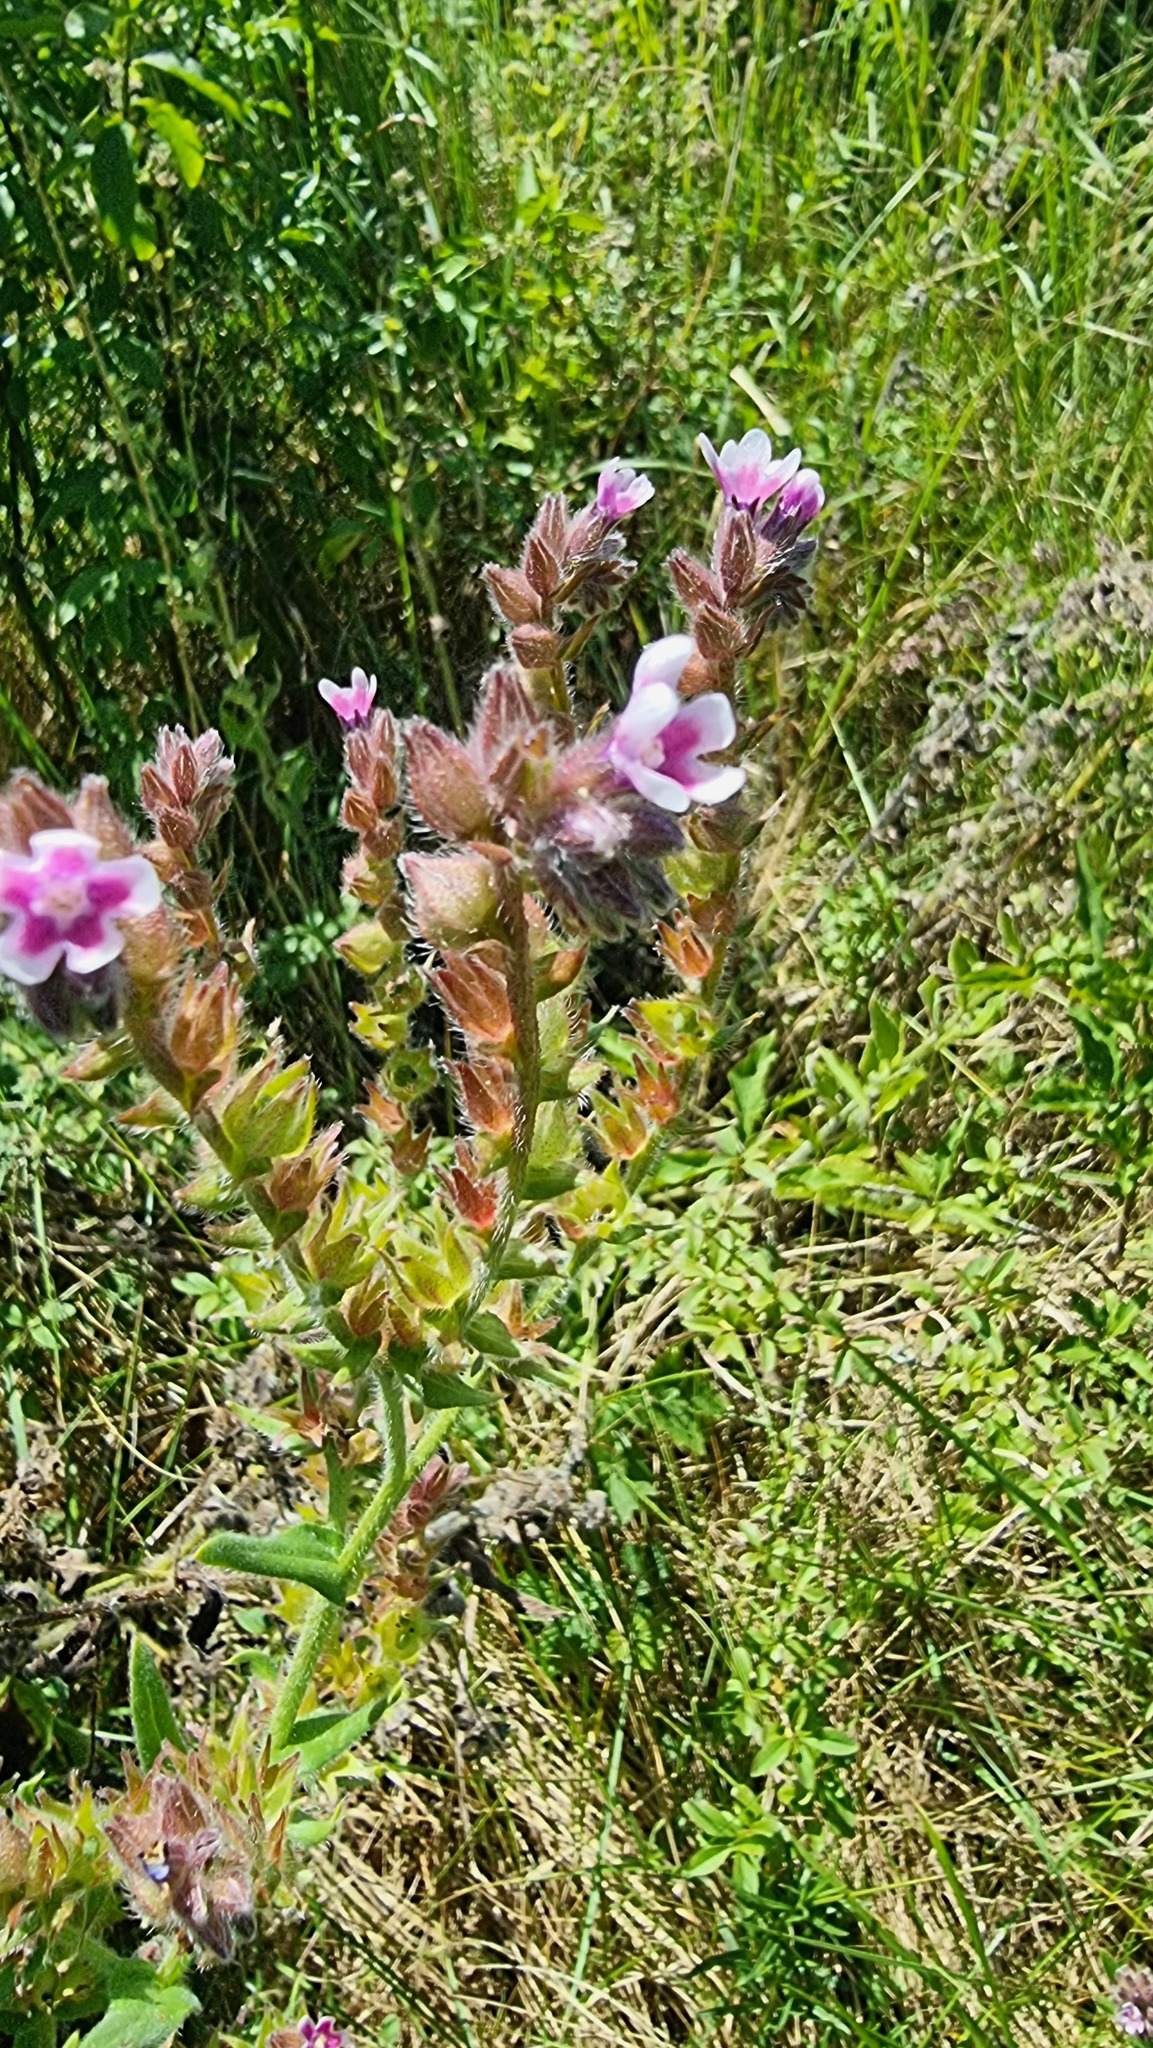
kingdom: Plantae
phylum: Tracheophyta
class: Magnoliopsida
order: Boraginales
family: Boraginaceae
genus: Anchusa
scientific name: Anchusa officinalis
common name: Alkanet
